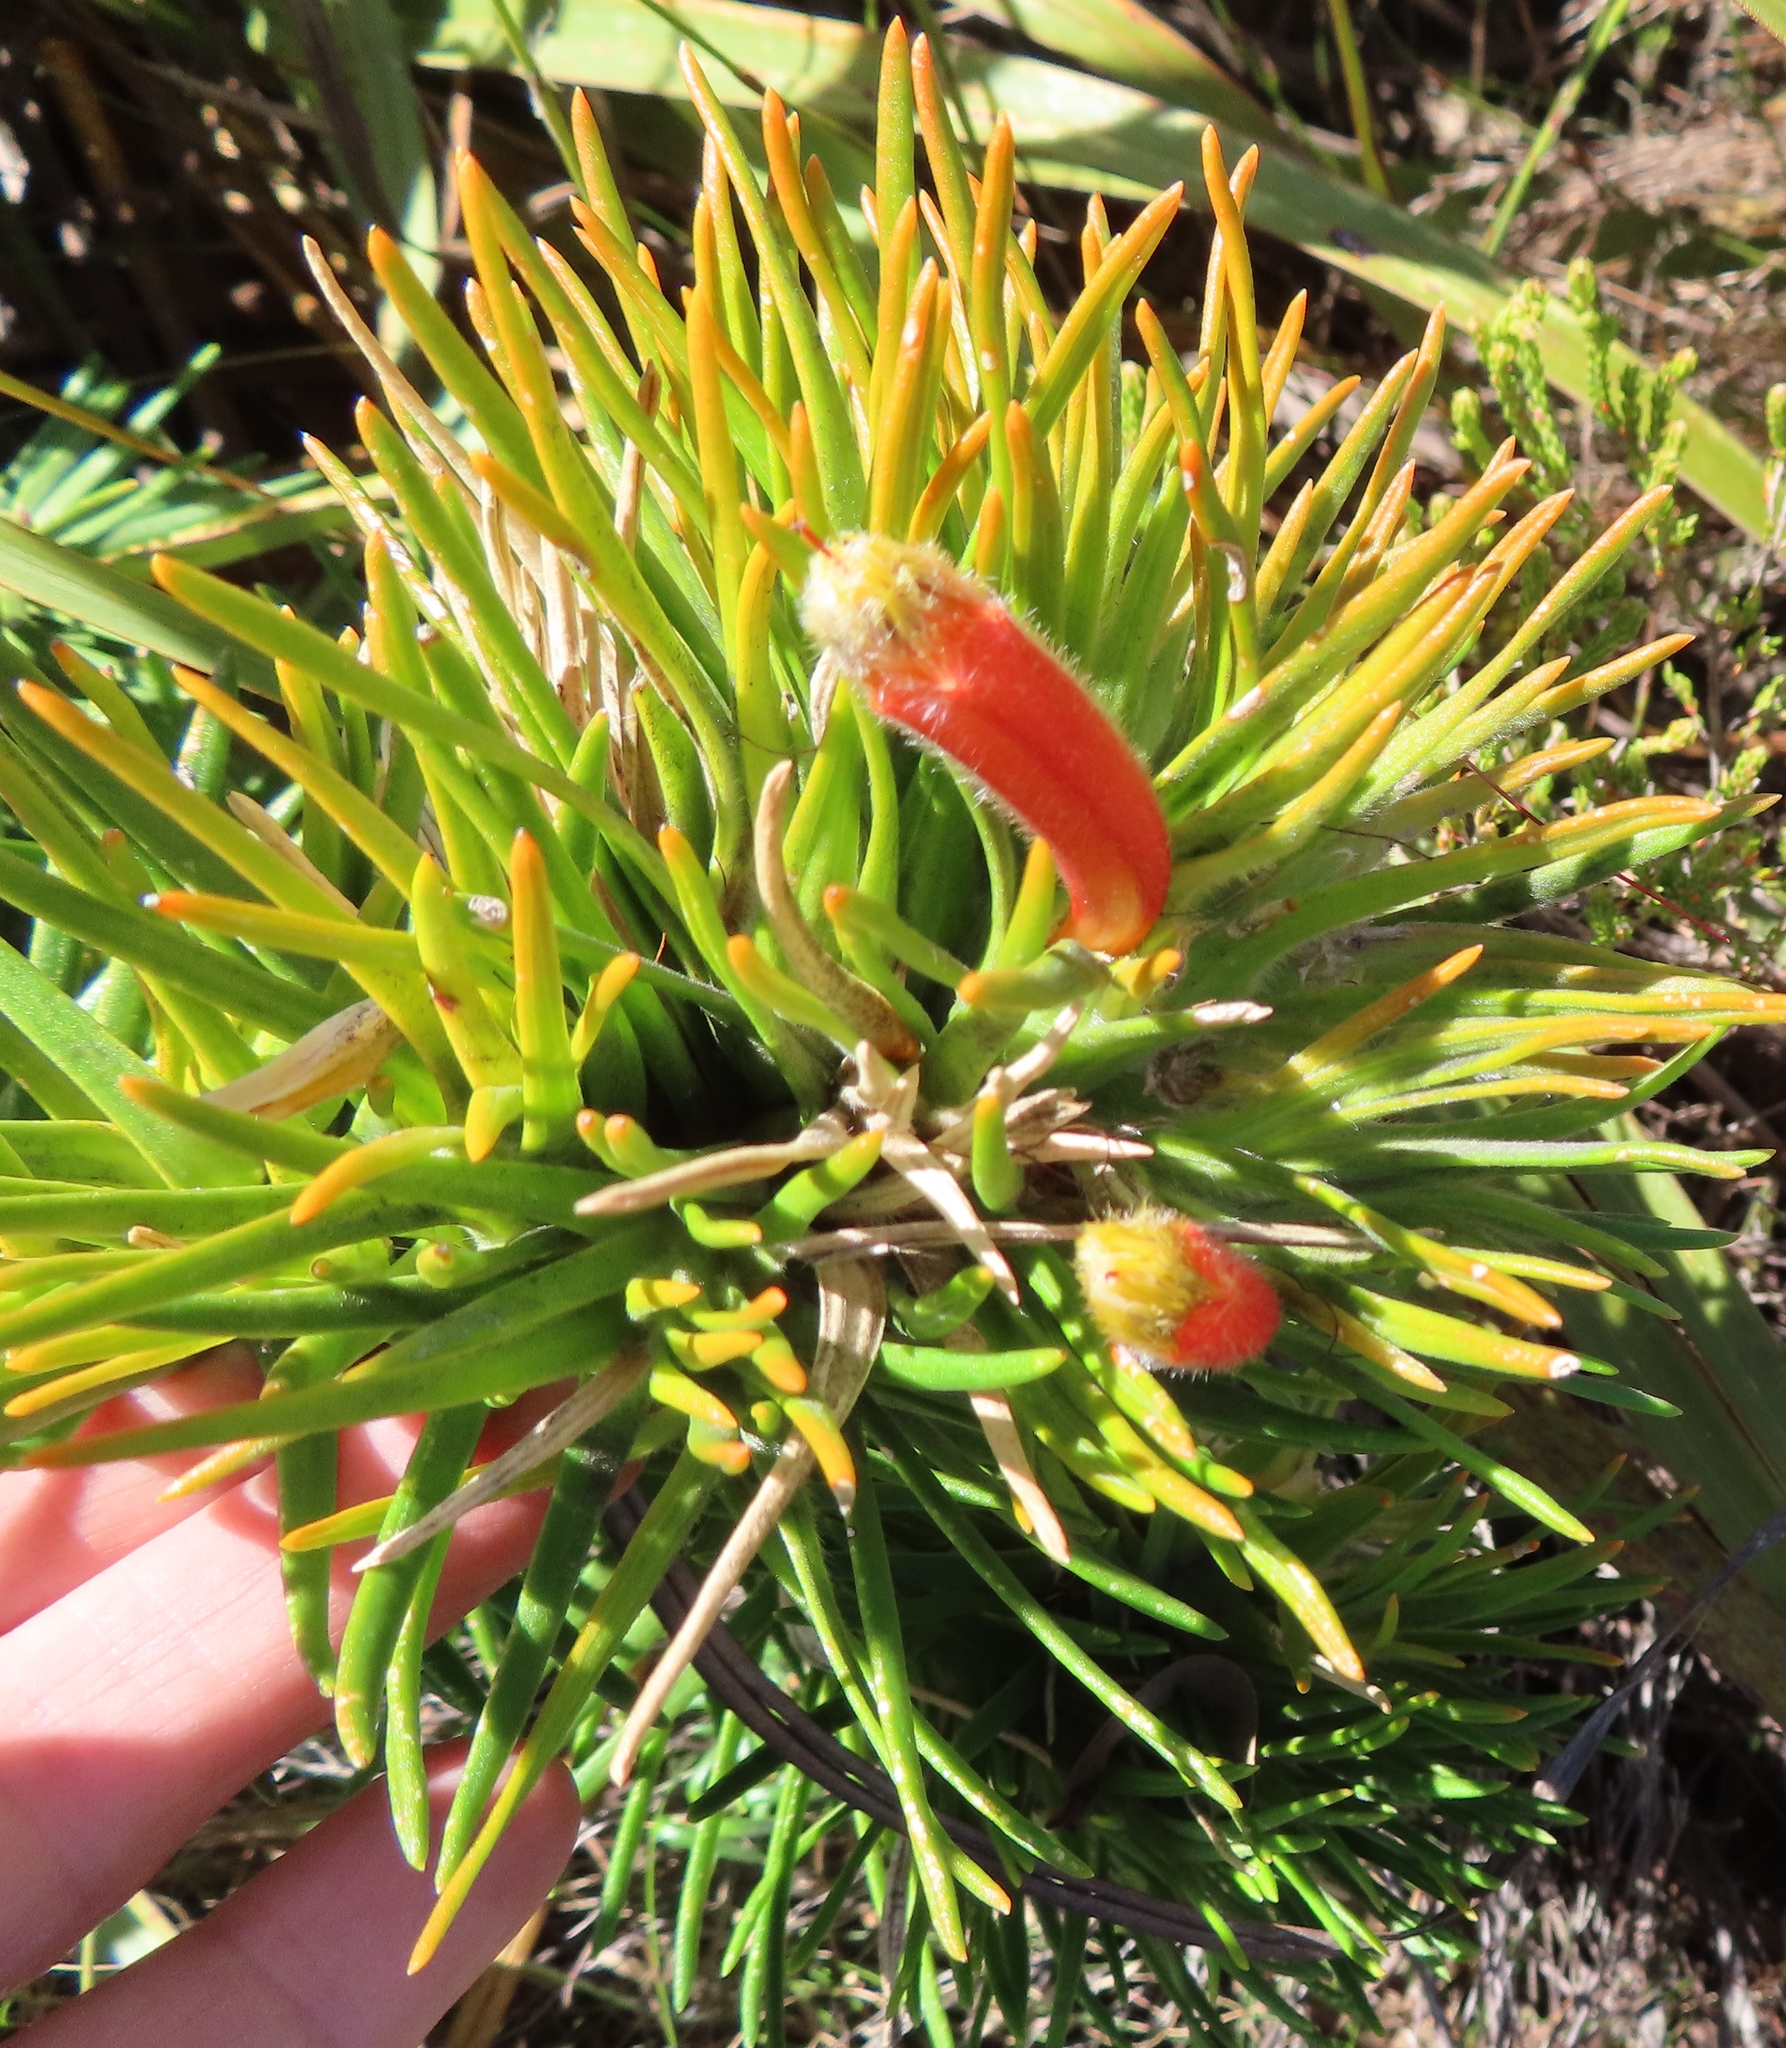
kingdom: Plantae
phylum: Tracheophyta
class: Magnoliopsida
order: Lamiales
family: Stilbaceae
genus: Retzia
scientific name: Retzia capensis
